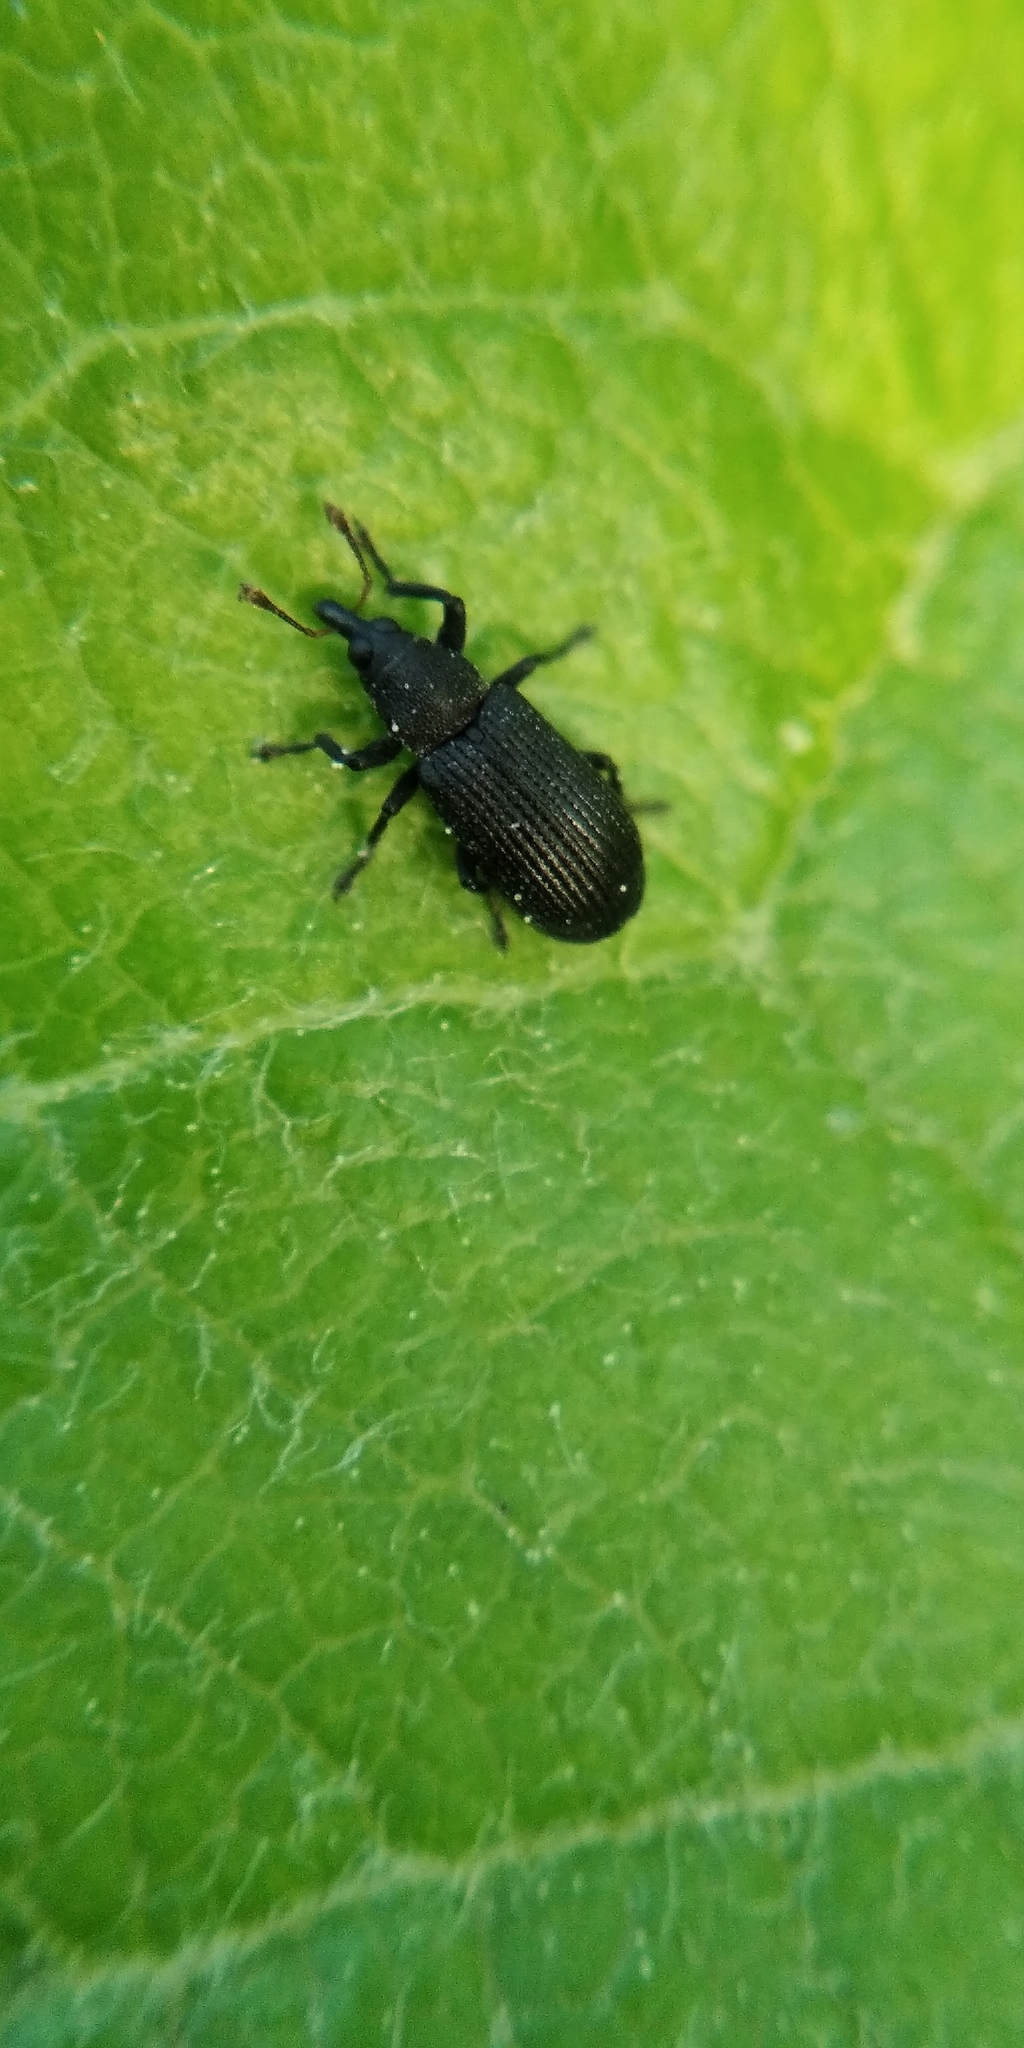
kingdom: Animalia
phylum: Arthropoda
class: Insecta
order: Coleoptera
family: Curculionidae
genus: Magdalis
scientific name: Magdalis ruficornis
